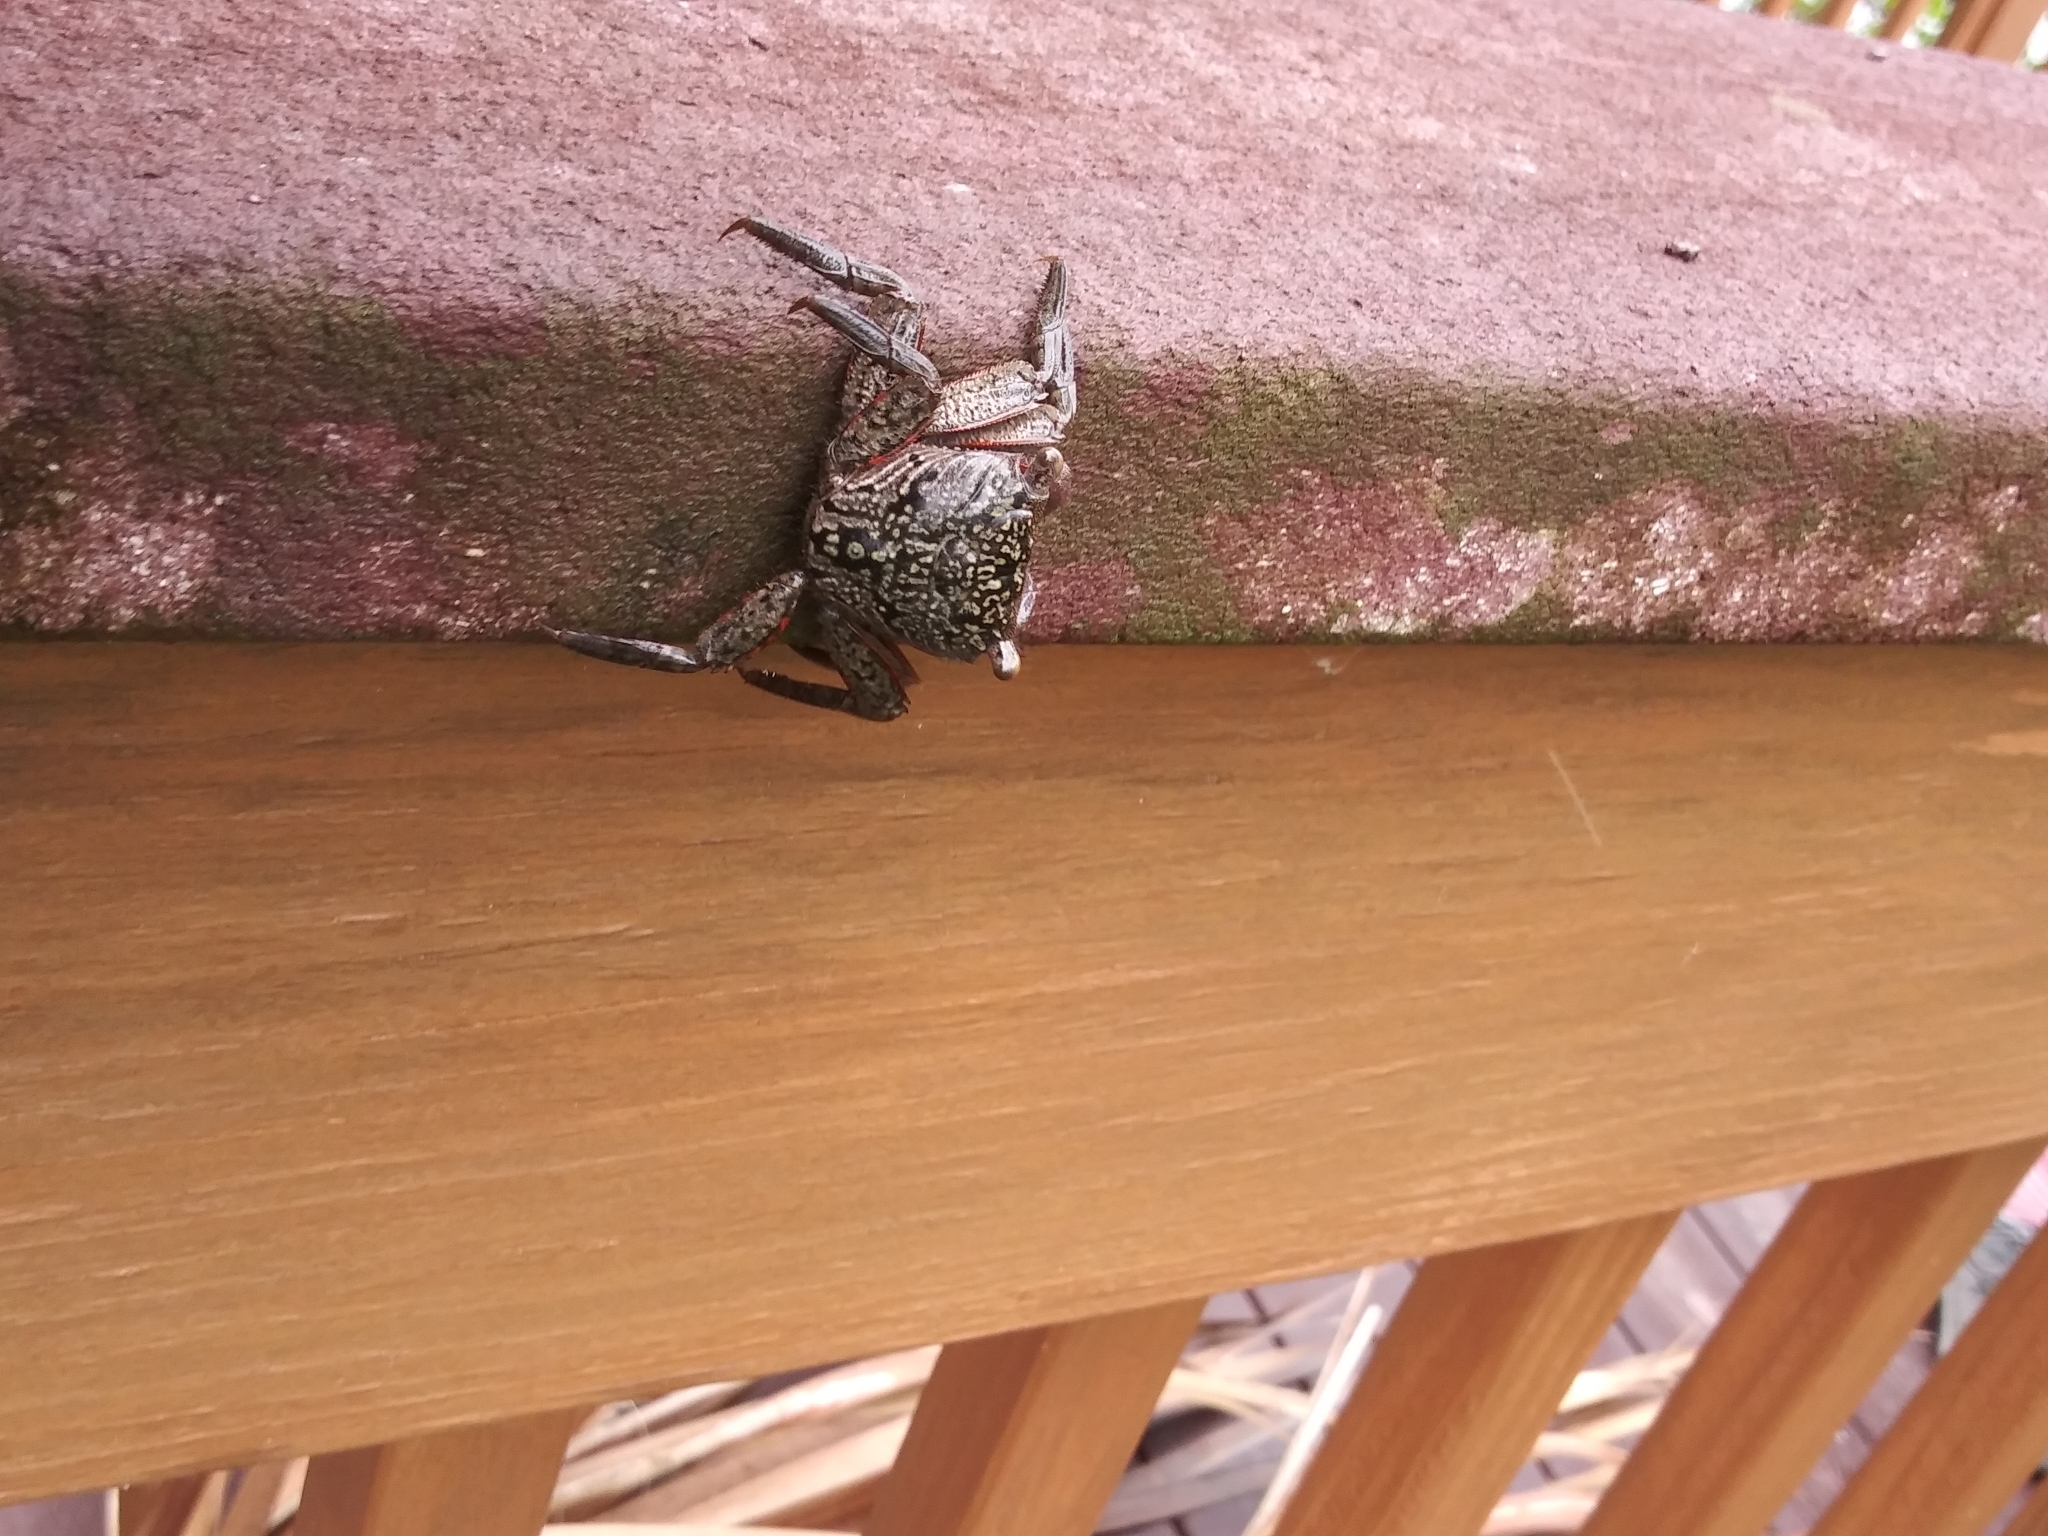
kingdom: Animalia
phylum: Arthropoda
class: Malacostraca
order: Decapoda
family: Sesarmidae
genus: Aratus
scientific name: Aratus pisonii
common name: Mangrove crab
